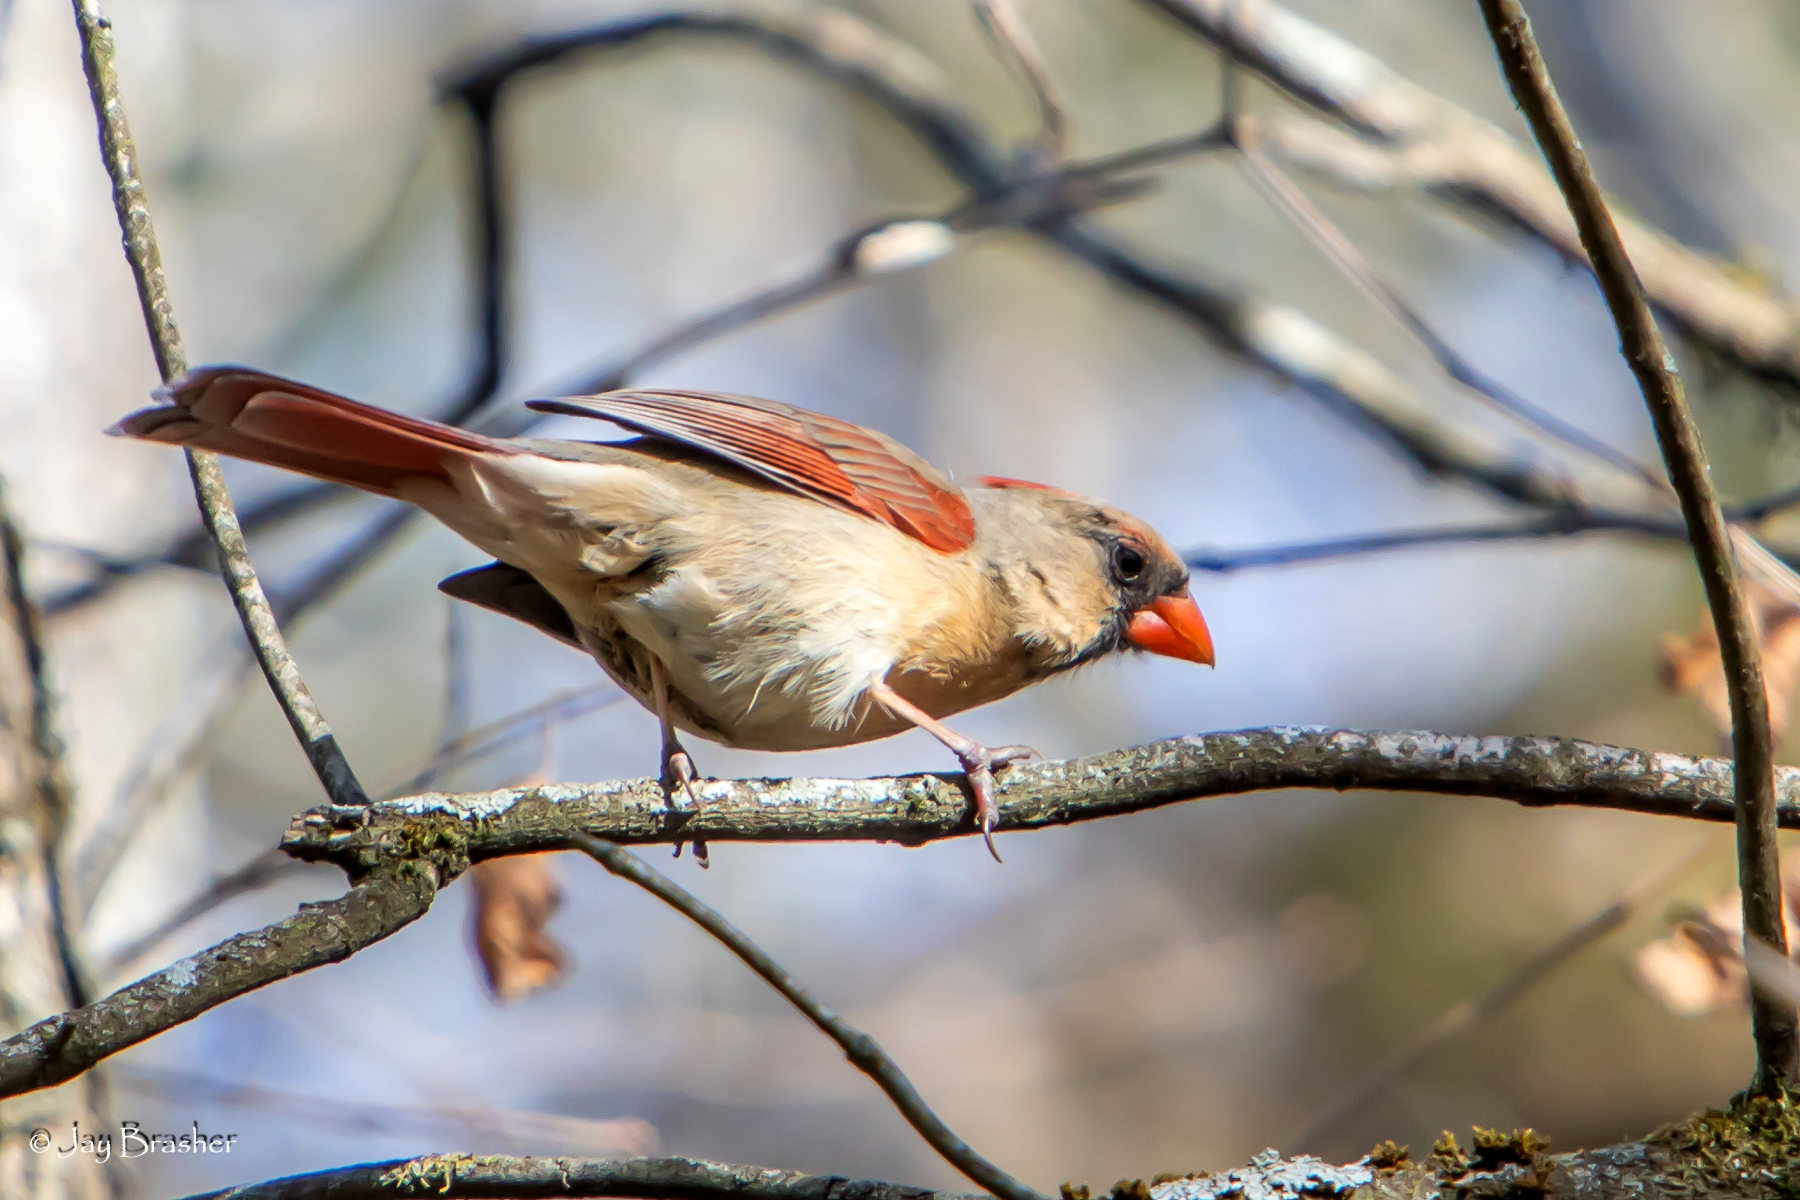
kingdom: Animalia
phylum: Chordata
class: Aves
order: Passeriformes
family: Cardinalidae
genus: Cardinalis
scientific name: Cardinalis cardinalis
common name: Northern cardinal
